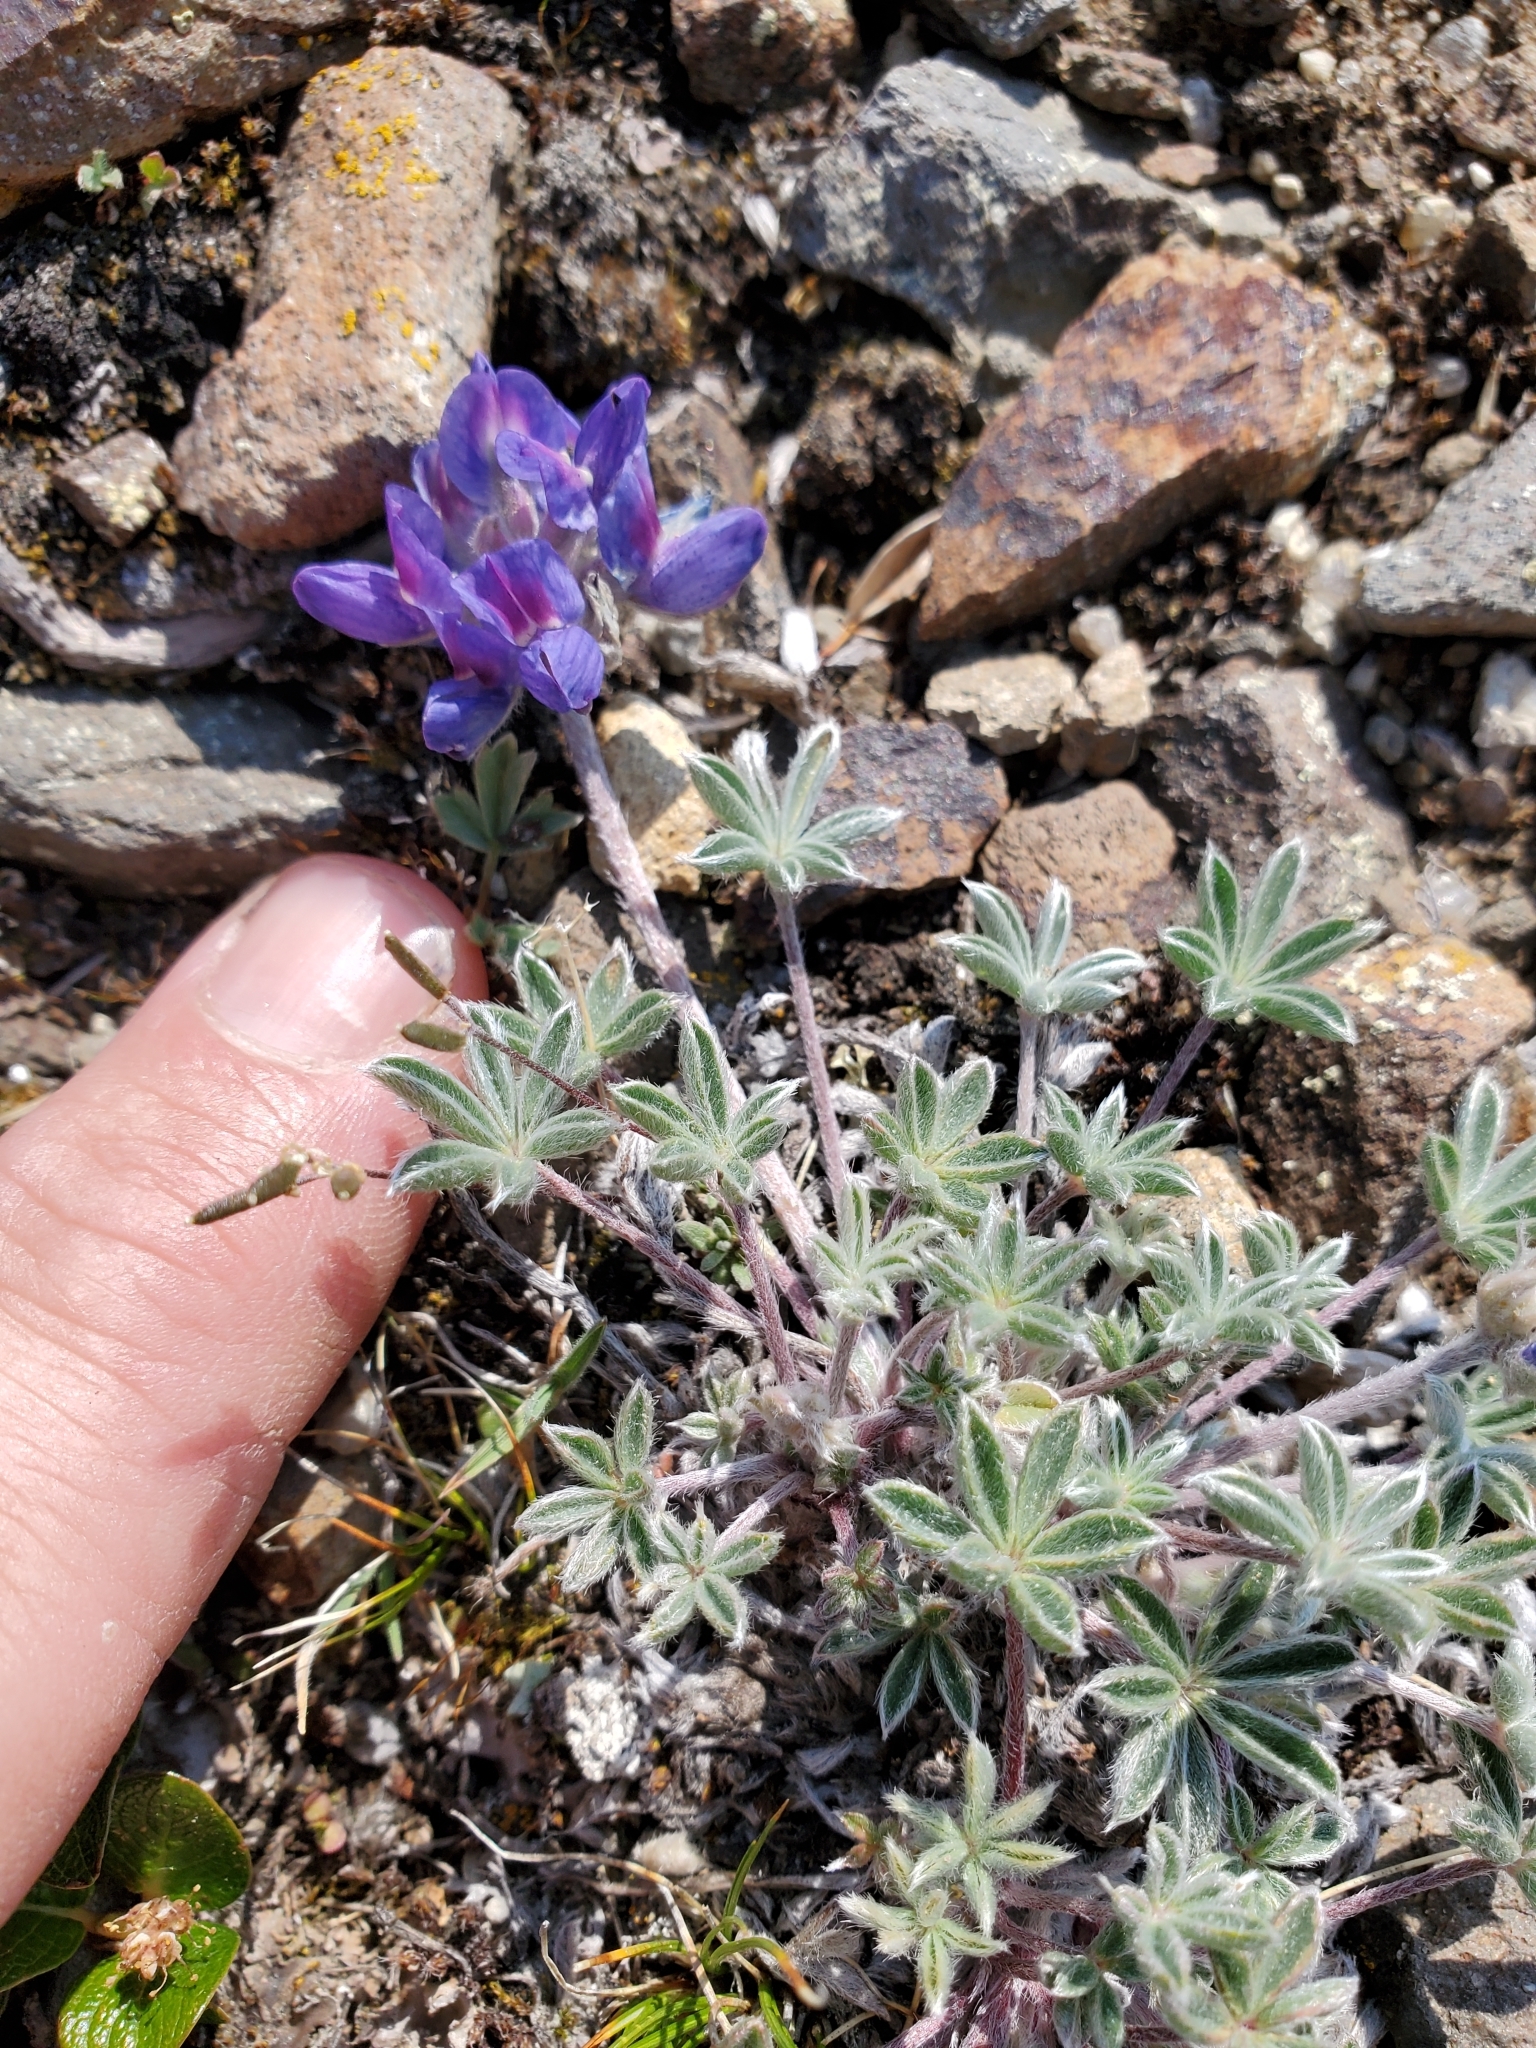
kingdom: Plantae
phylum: Tracheophyta
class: Magnoliopsida
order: Fabales
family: Fabaceae
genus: Lupinus
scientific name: Lupinus lepidus
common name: Prairie lupine
